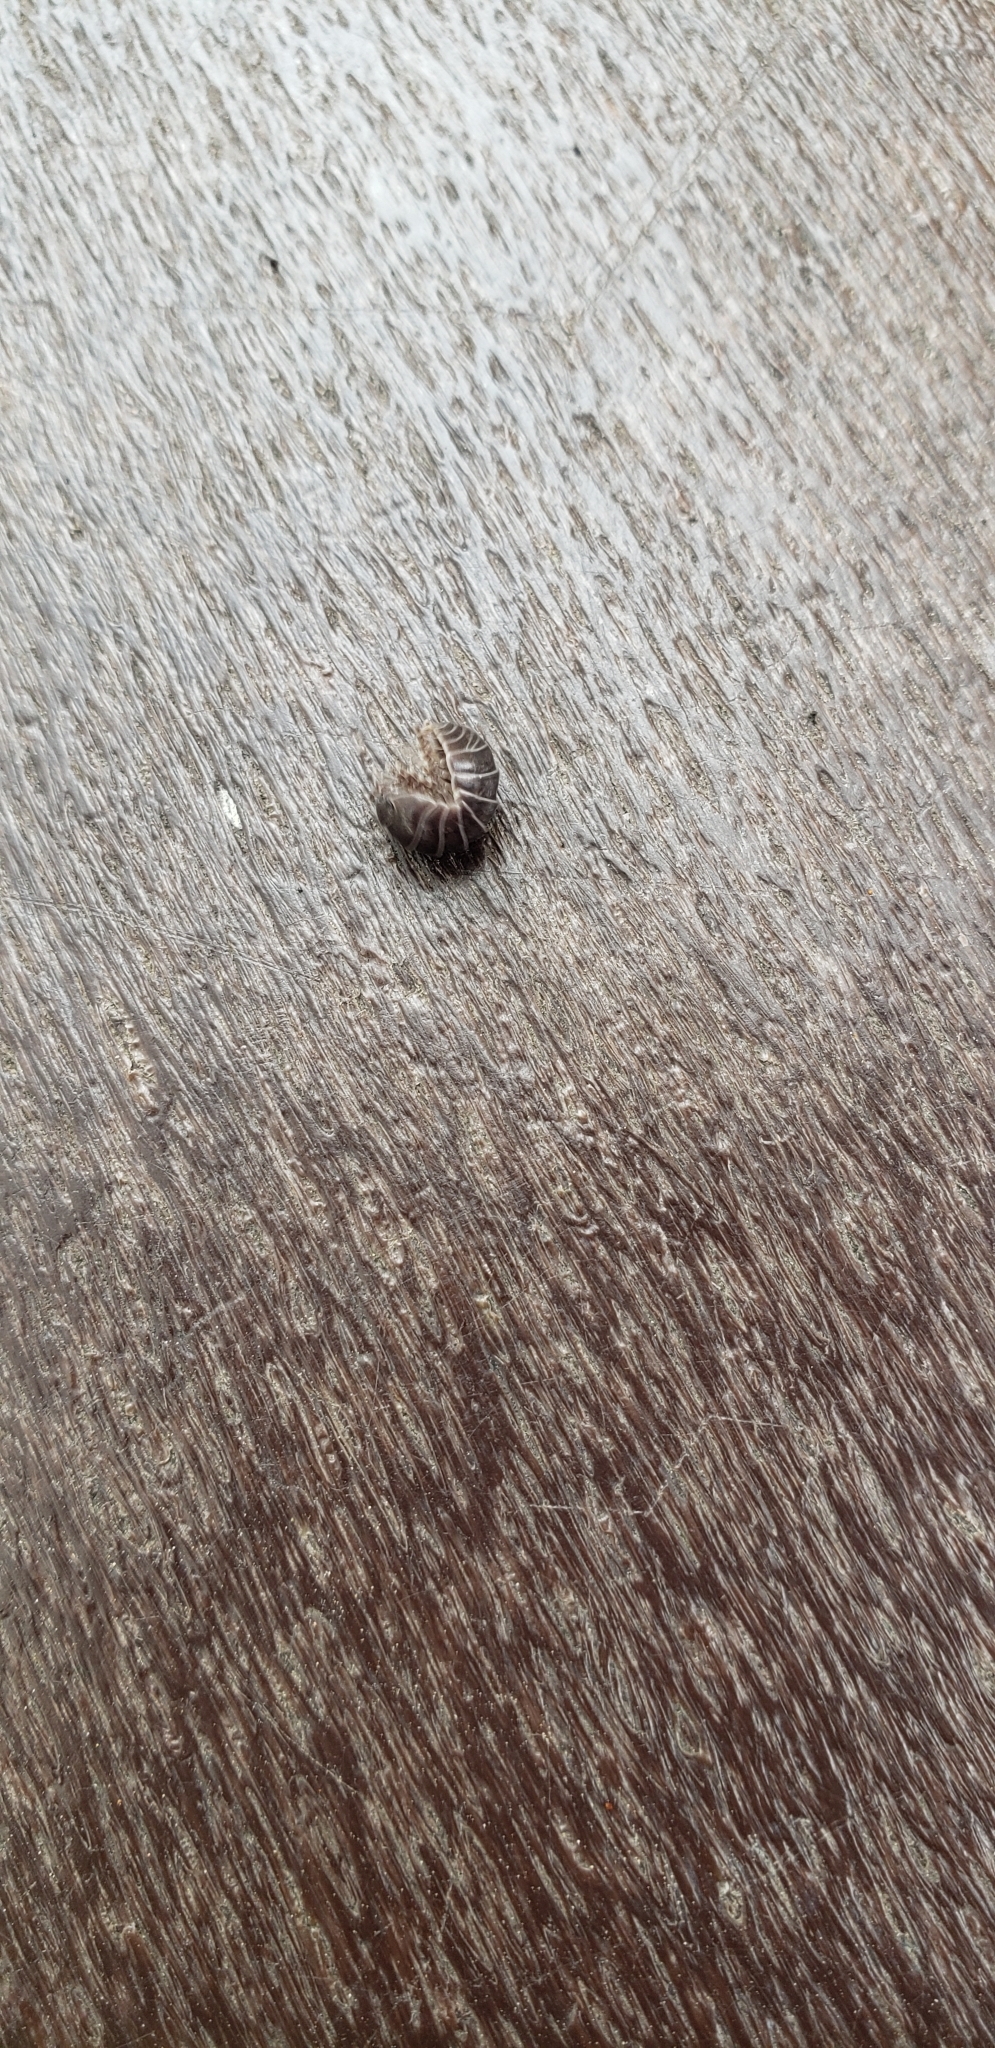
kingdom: Animalia
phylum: Arthropoda
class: Malacostraca
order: Isopoda
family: Armadillidiidae
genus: Armadillidium
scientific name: Armadillidium vulgare
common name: Common pill woodlouse
